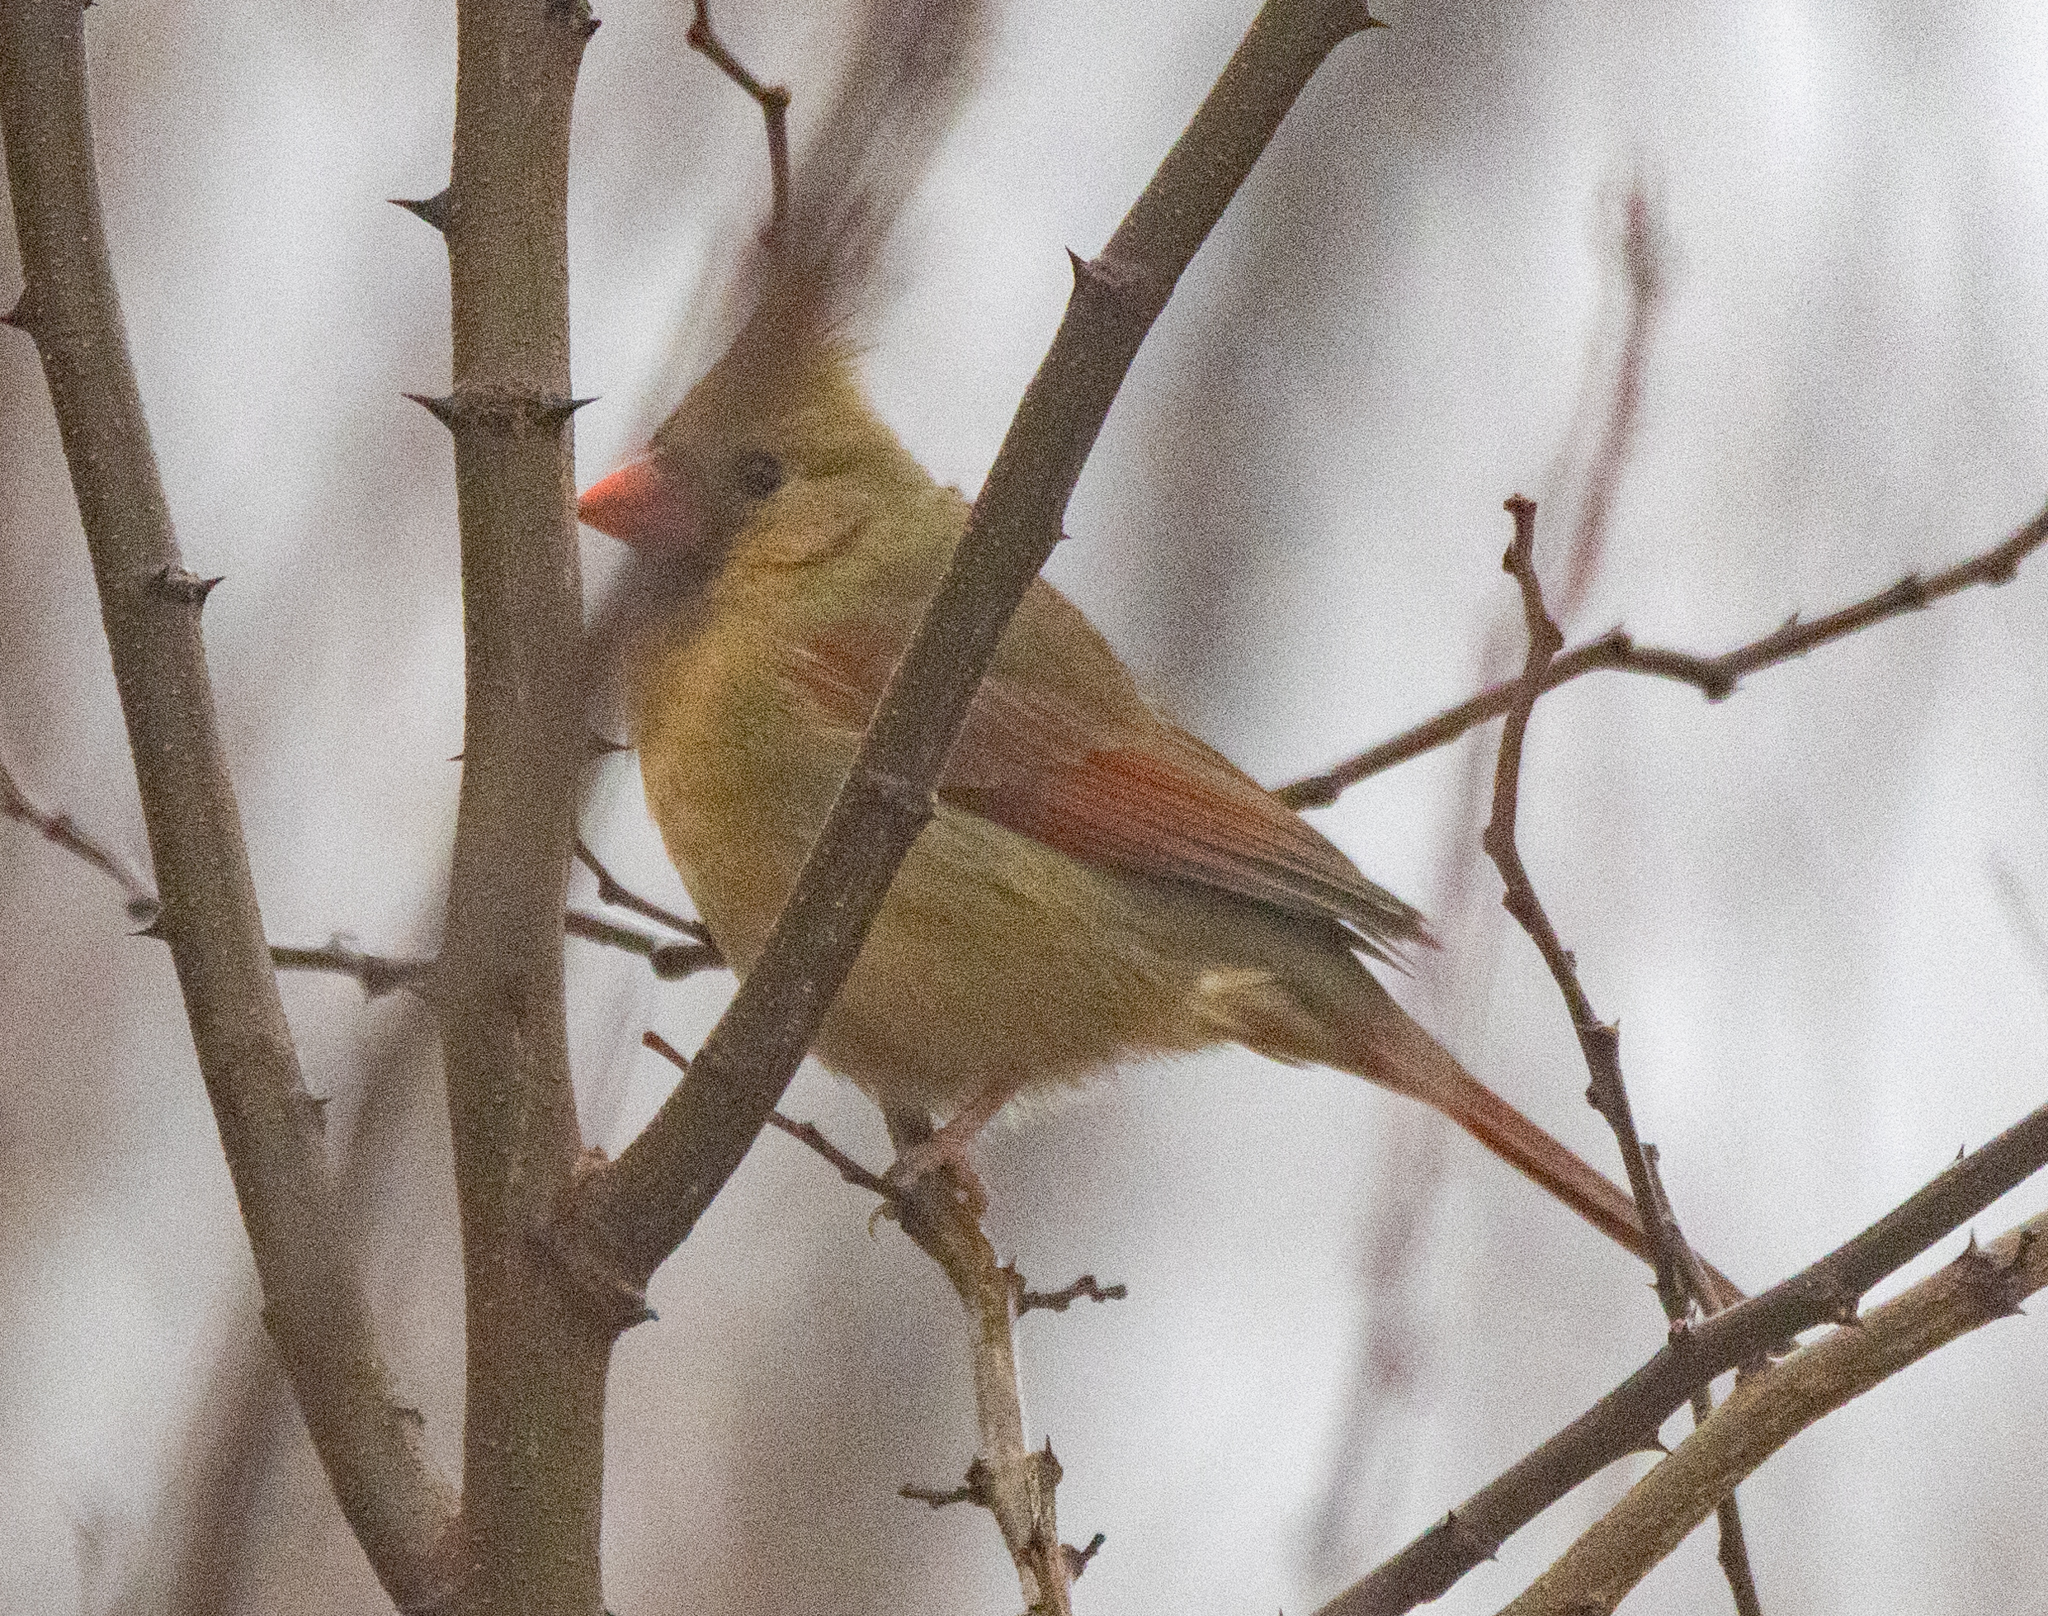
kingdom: Animalia
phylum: Chordata
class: Aves
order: Passeriformes
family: Cardinalidae
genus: Cardinalis
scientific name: Cardinalis cardinalis
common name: Northern cardinal
